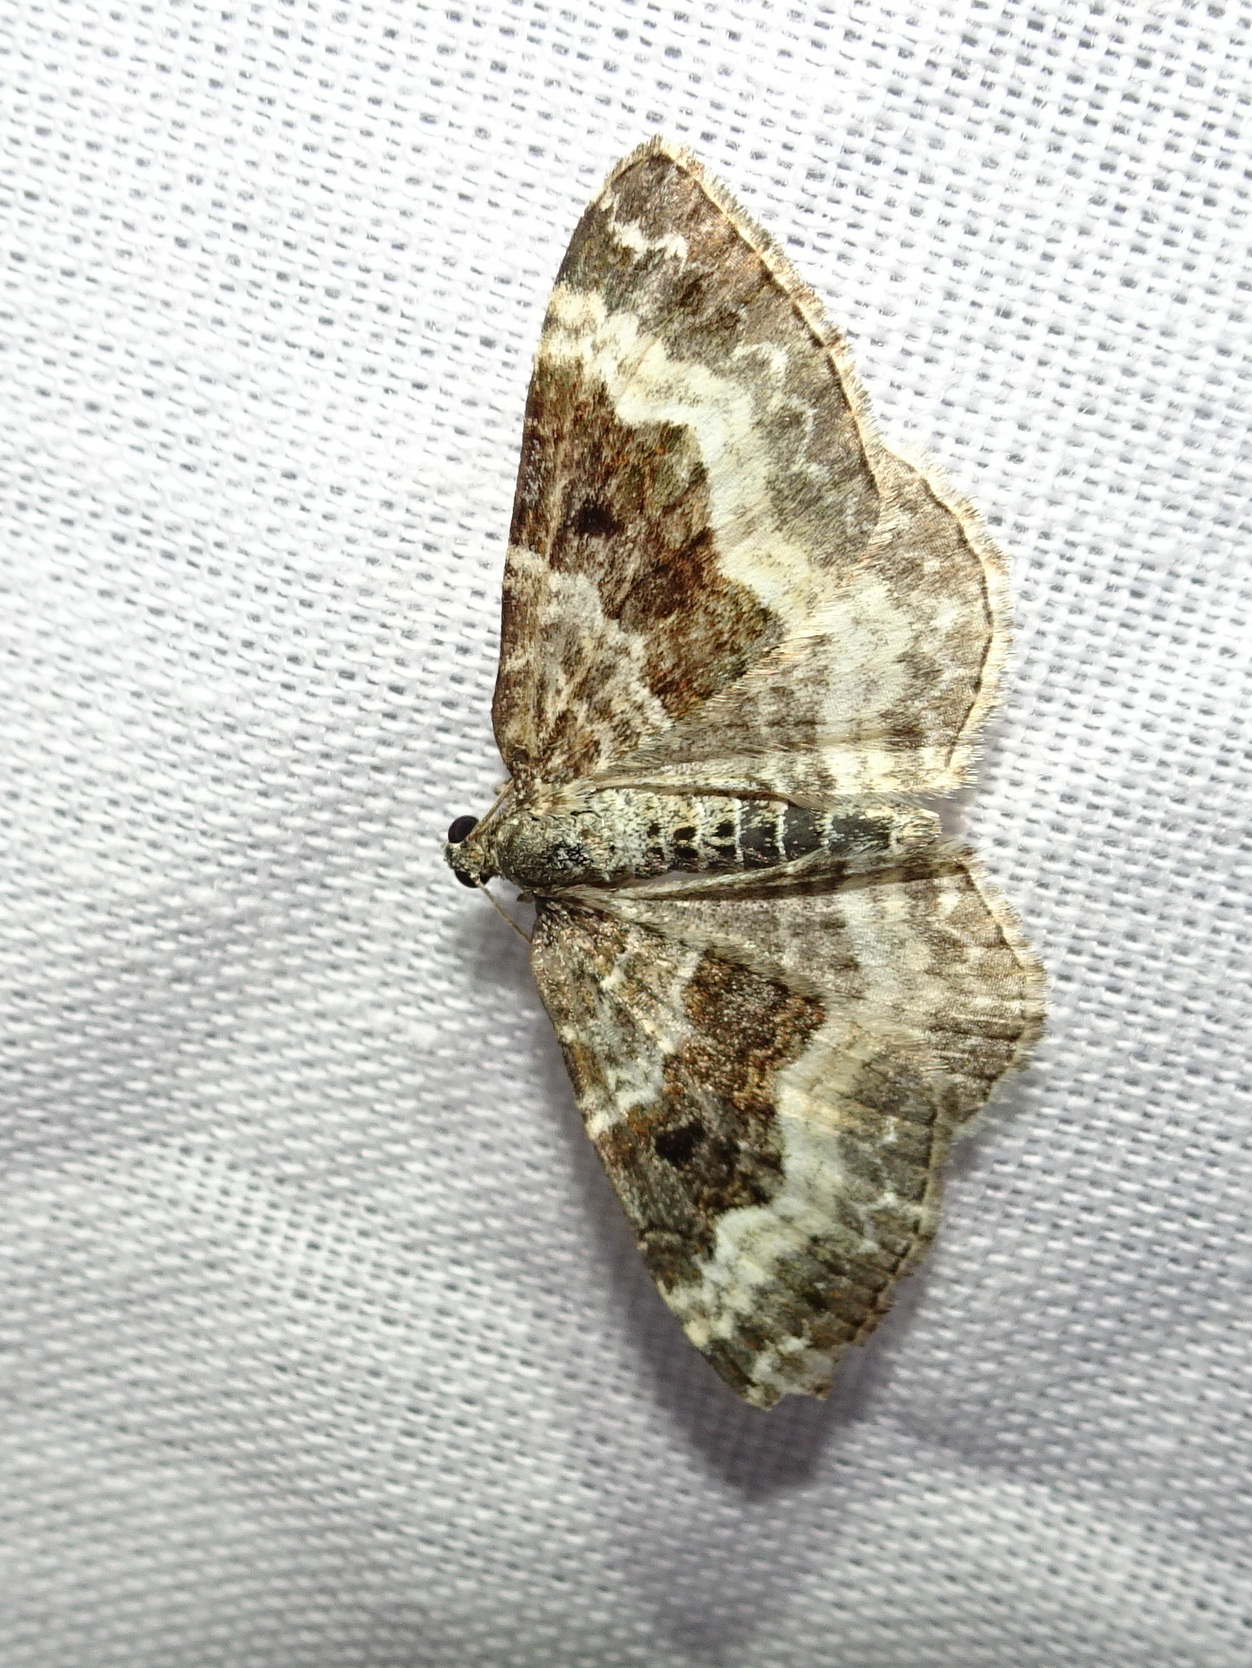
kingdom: Animalia
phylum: Arthropoda
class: Insecta
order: Lepidoptera
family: Geometridae
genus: Epirrhoe
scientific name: Epirrhoe alternata
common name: Common carpet
